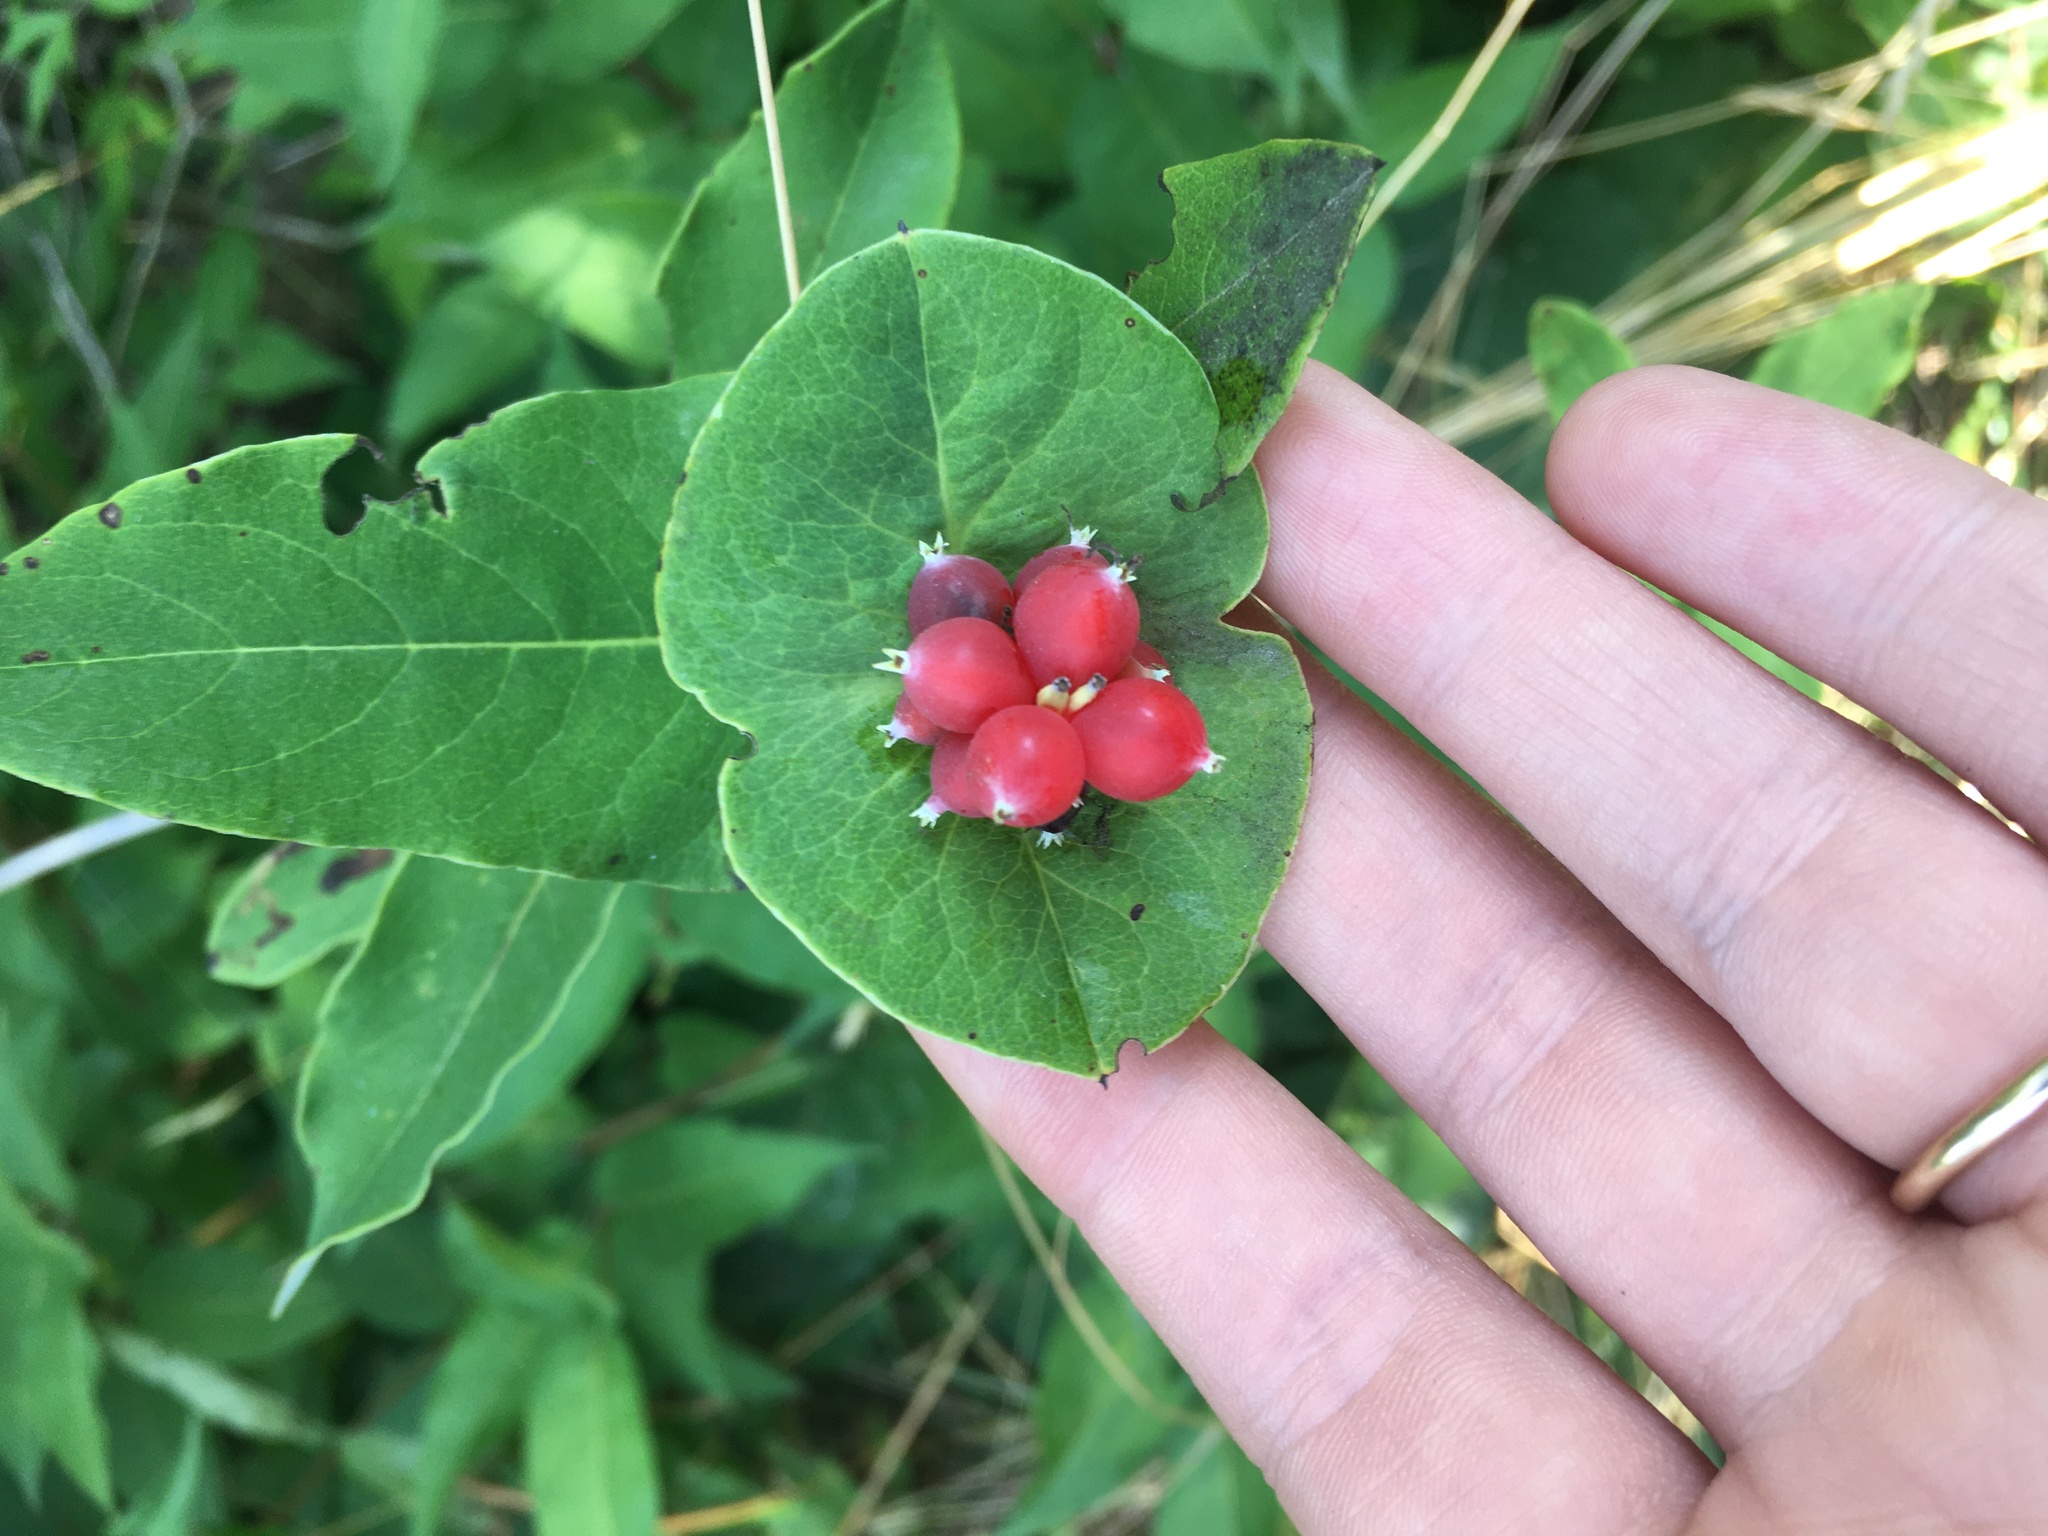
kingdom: Plantae
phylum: Tracheophyta
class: Magnoliopsida
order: Dipsacales
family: Caprifoliaceae
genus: Lonicera
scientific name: Lonicera dioica
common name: Limber honeysuckle
